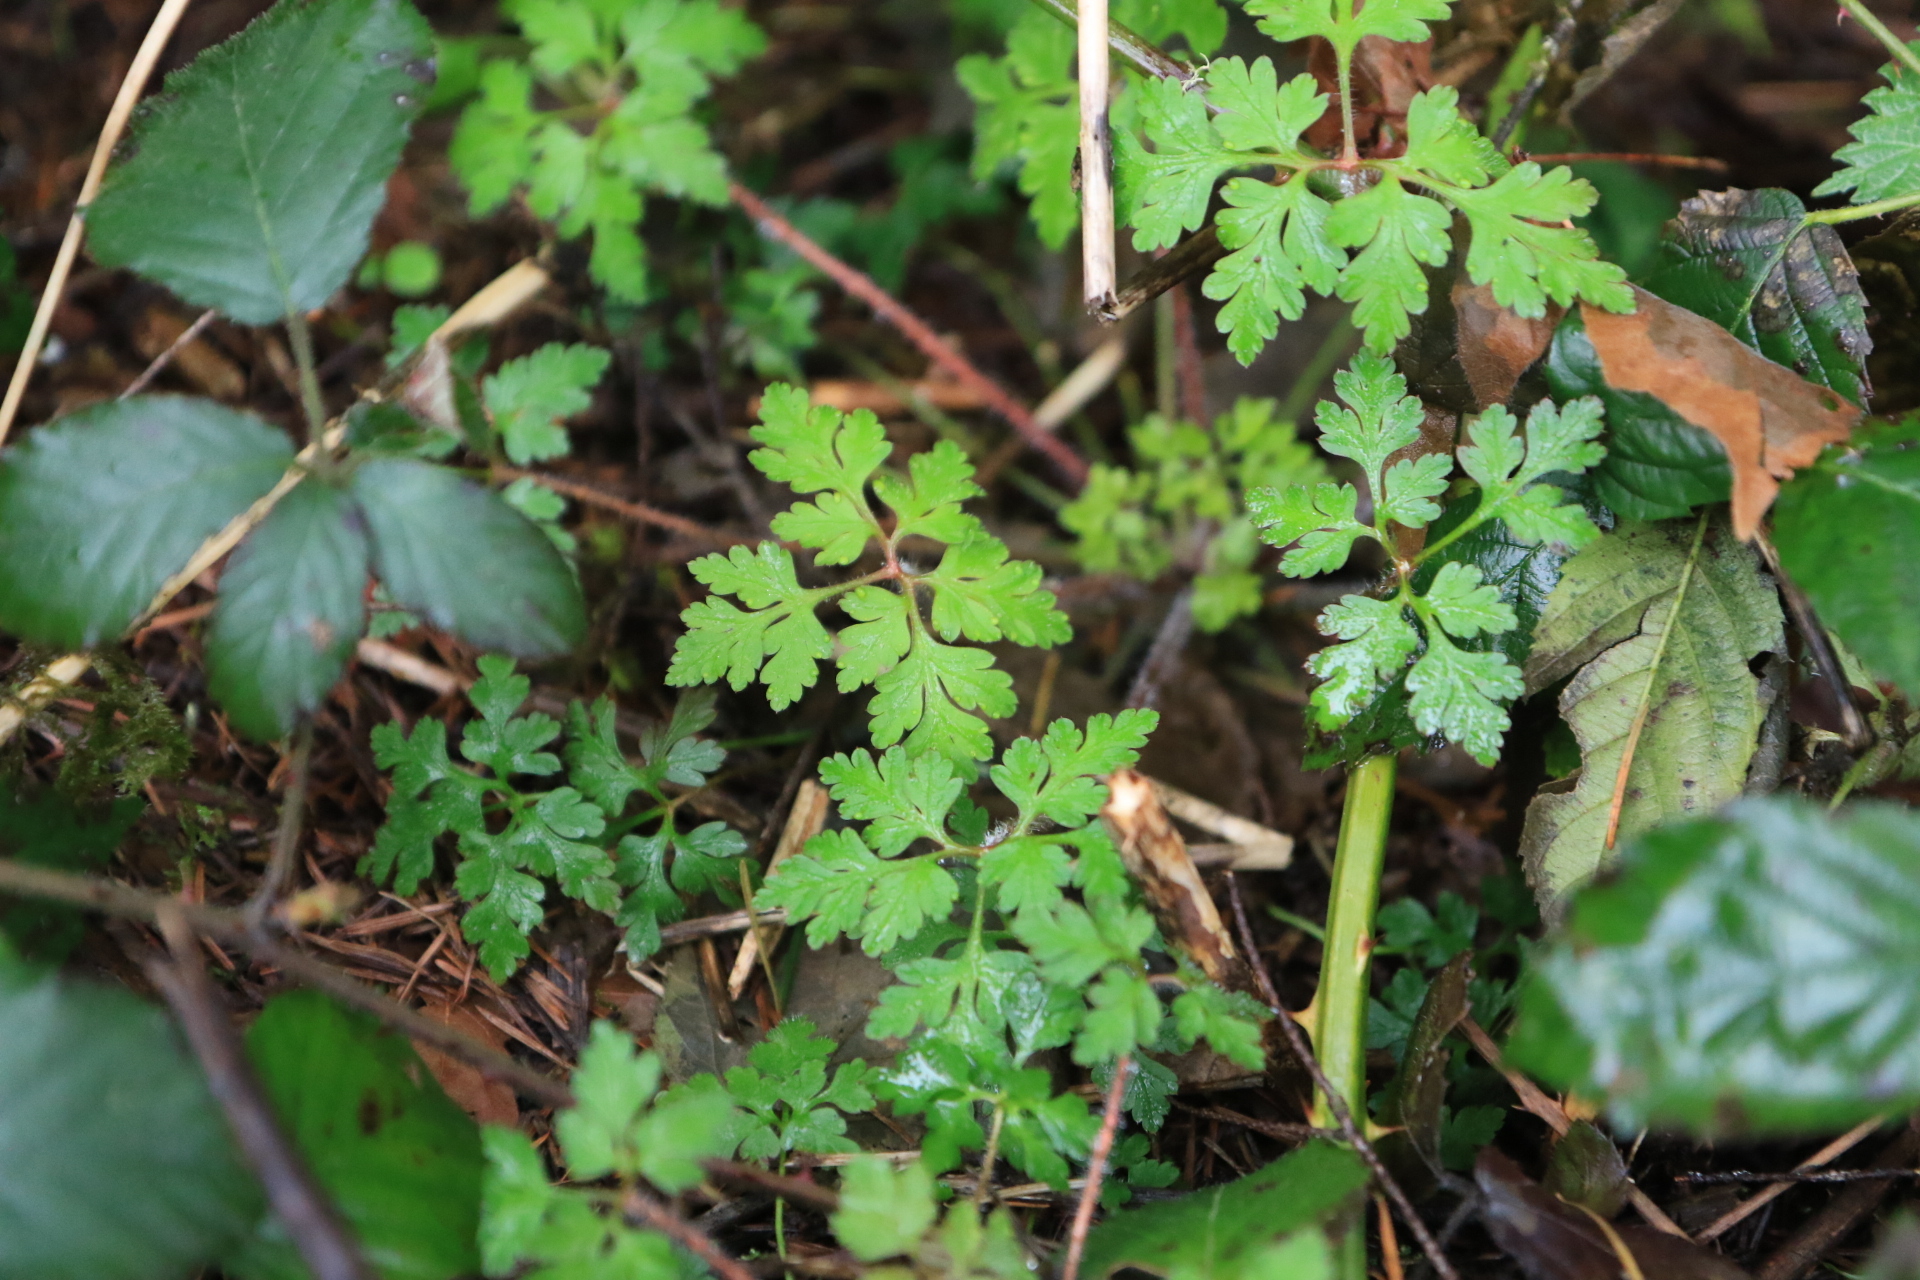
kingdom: Plantae
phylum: Tracheophyta
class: Magnoliopsida
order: Geraniales
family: Geraniaceae
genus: Geranium
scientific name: Geranium robertianum
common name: Herb-robert
